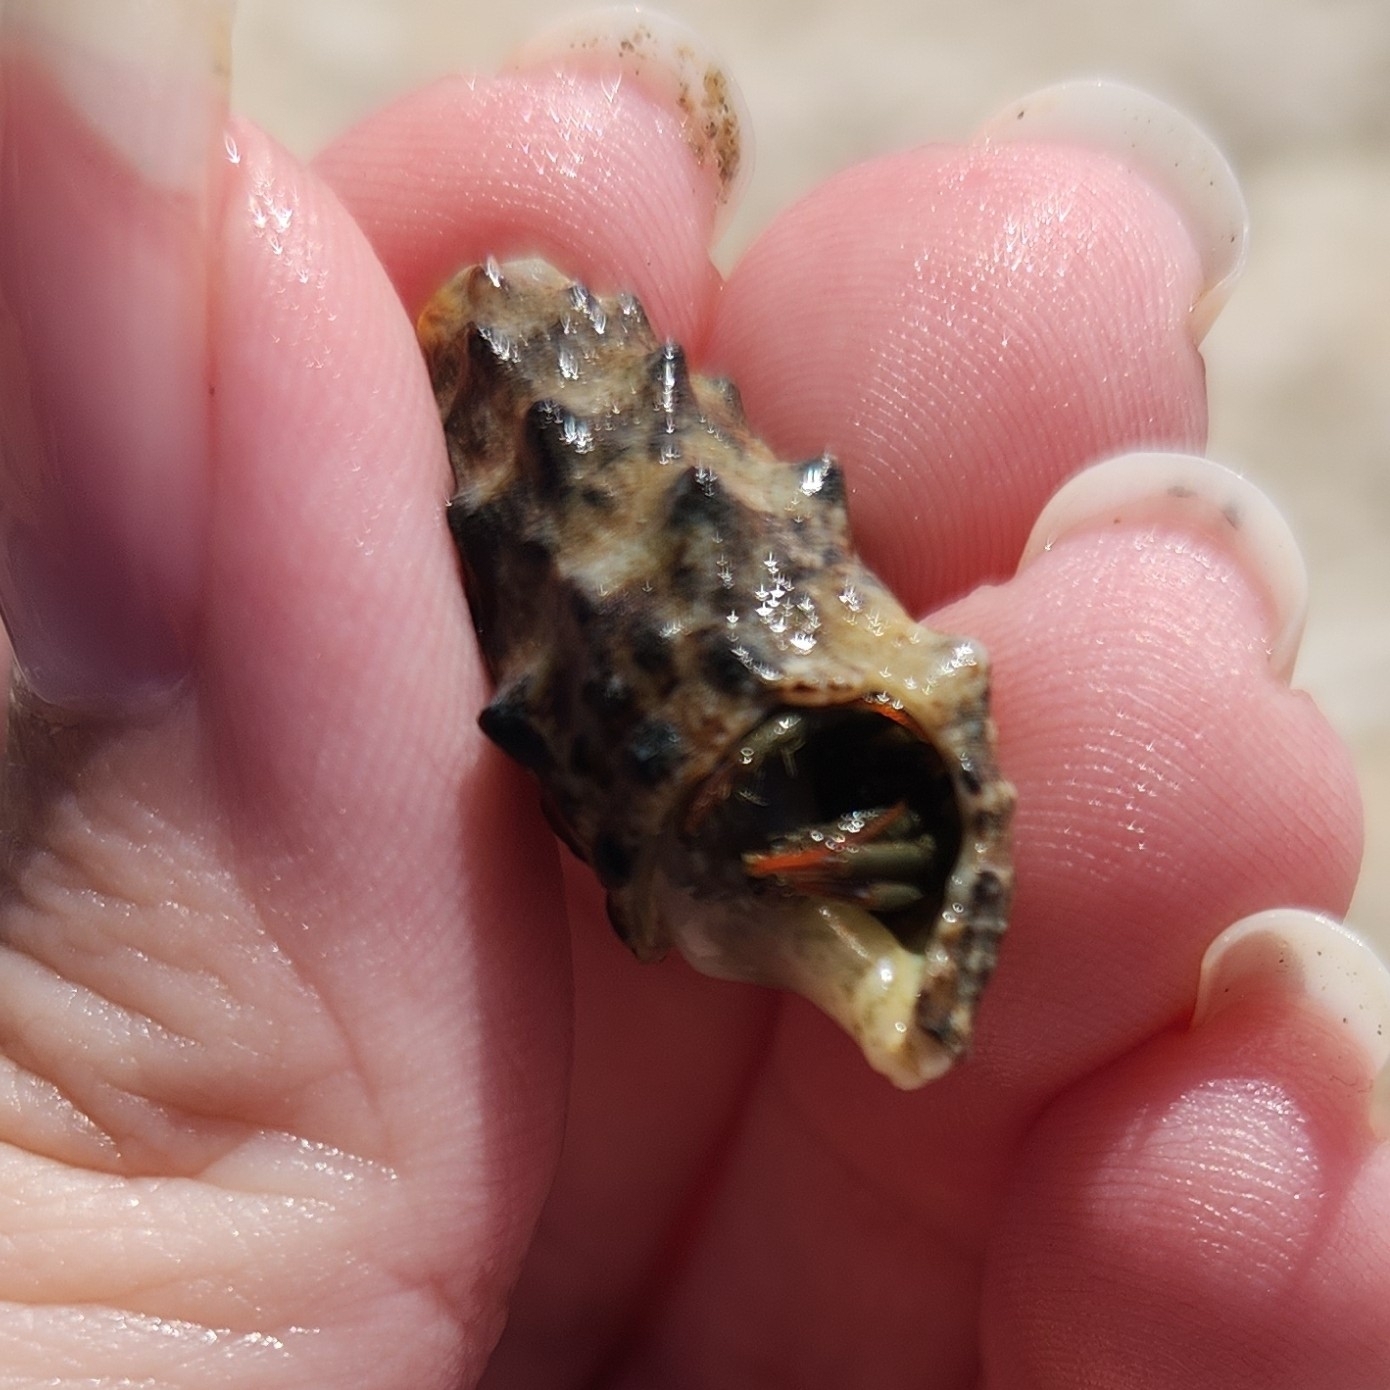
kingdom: Animalia
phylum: Arthropoda
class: Malacostraca
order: Decapoda
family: Diogenidae
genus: Clibanarius
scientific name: Clibanarius erythropus
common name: Hermit crab
